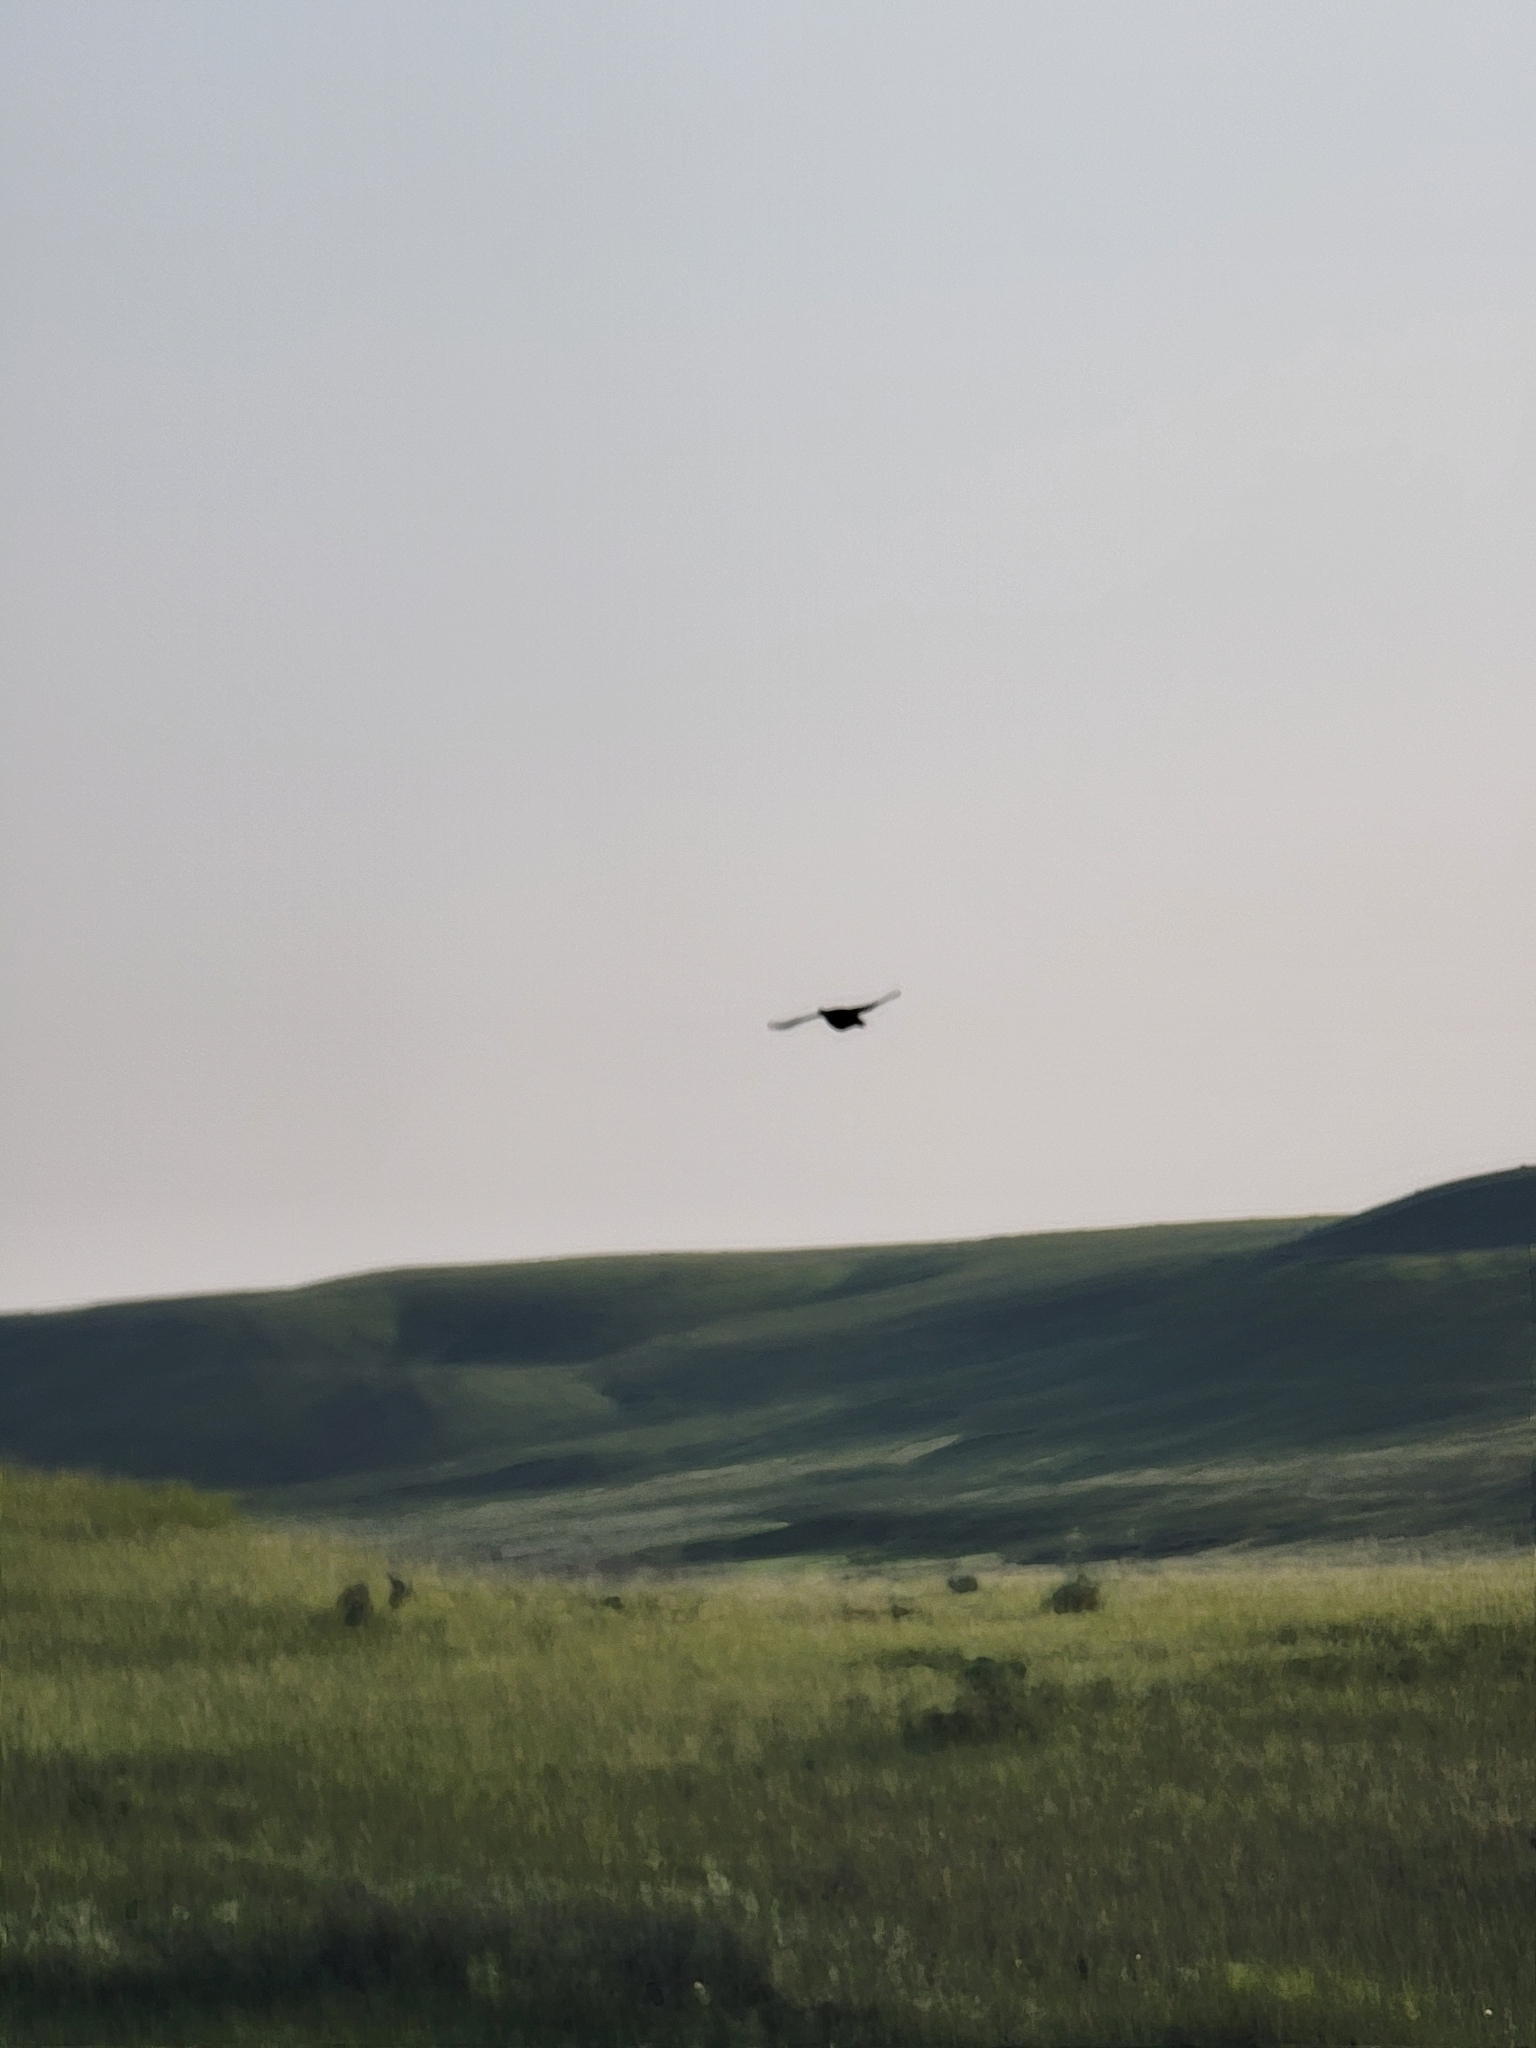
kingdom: Animalia
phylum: Chordata
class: Aves
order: Galliformes
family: Phasianidae
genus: Tympanuchus
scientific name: Tympanuchus phasianellus
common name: Sharp-tailed grouse
